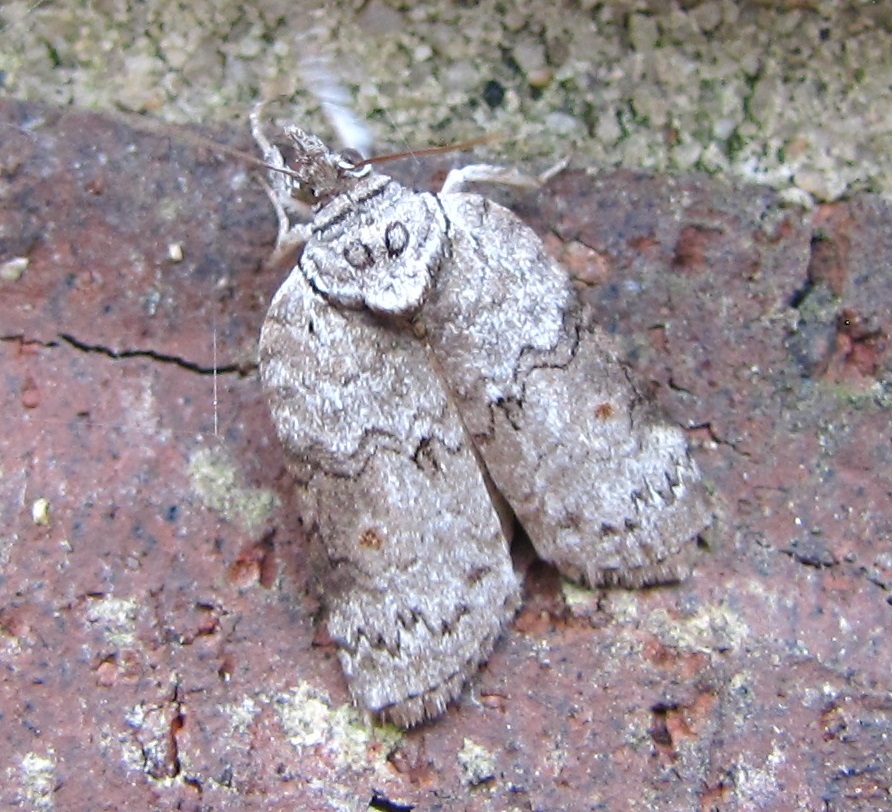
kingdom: Animalia
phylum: Arthropoda
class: Insecta
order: Lepidoptera
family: Nolidae
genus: Nycteola
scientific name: Nycteola metaspilella
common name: Forgotten frigid owlet
